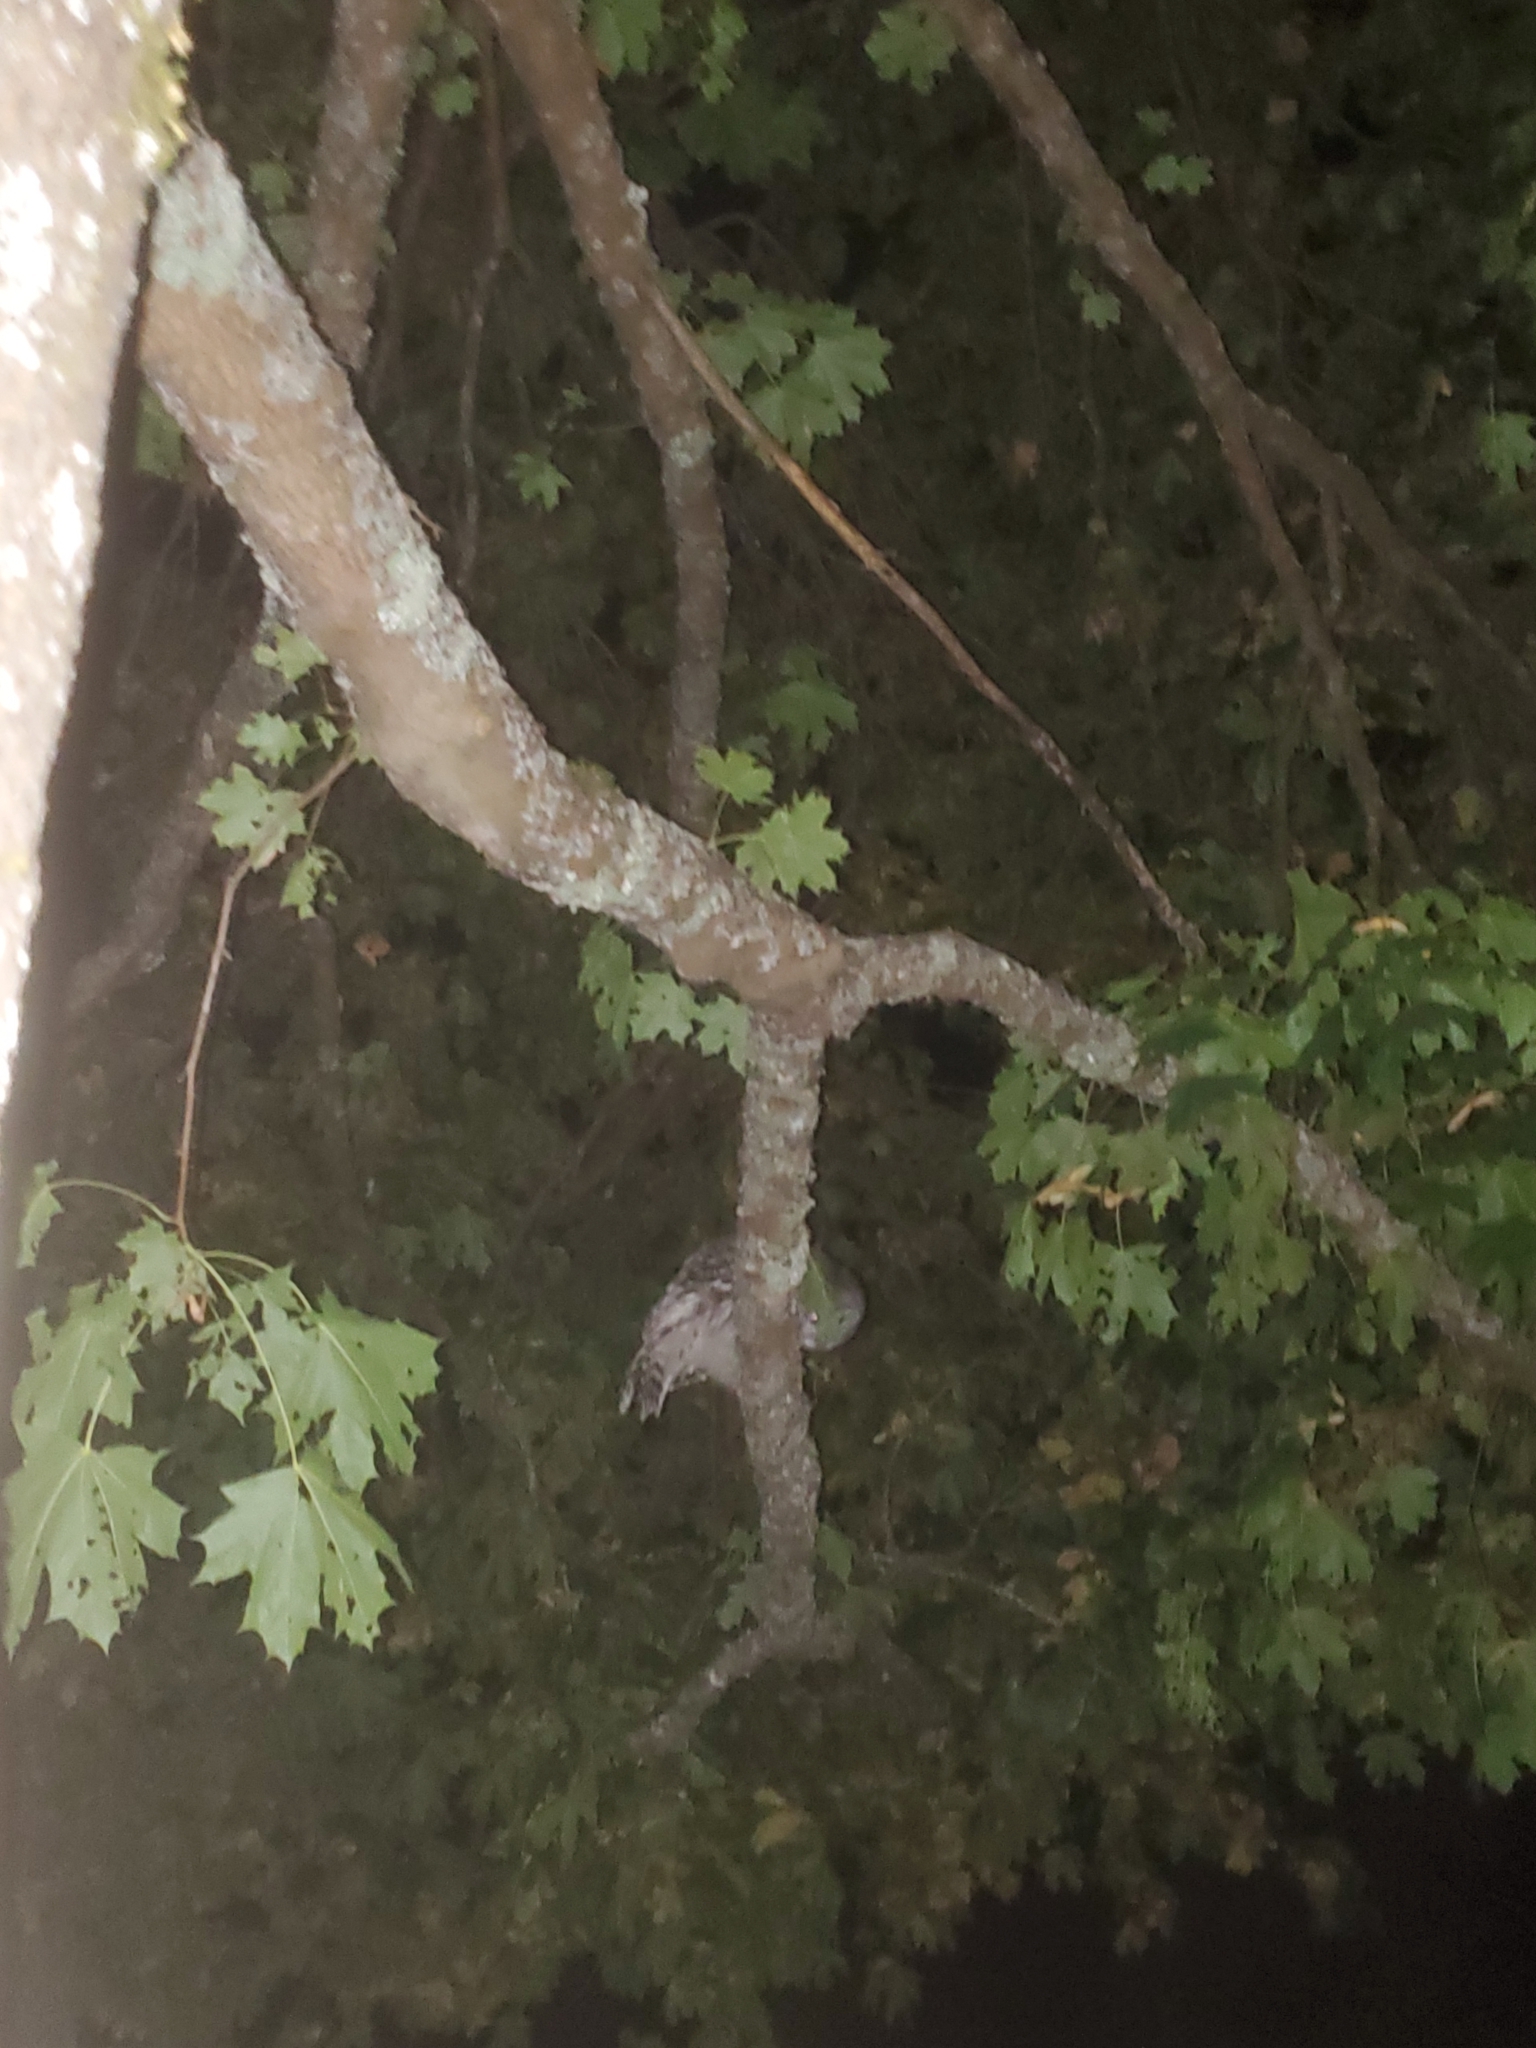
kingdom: Animalia
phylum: Chordata
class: Aves
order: Strigiformes
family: Strigidae
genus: Strix
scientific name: Strix varia
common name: Barred owl
